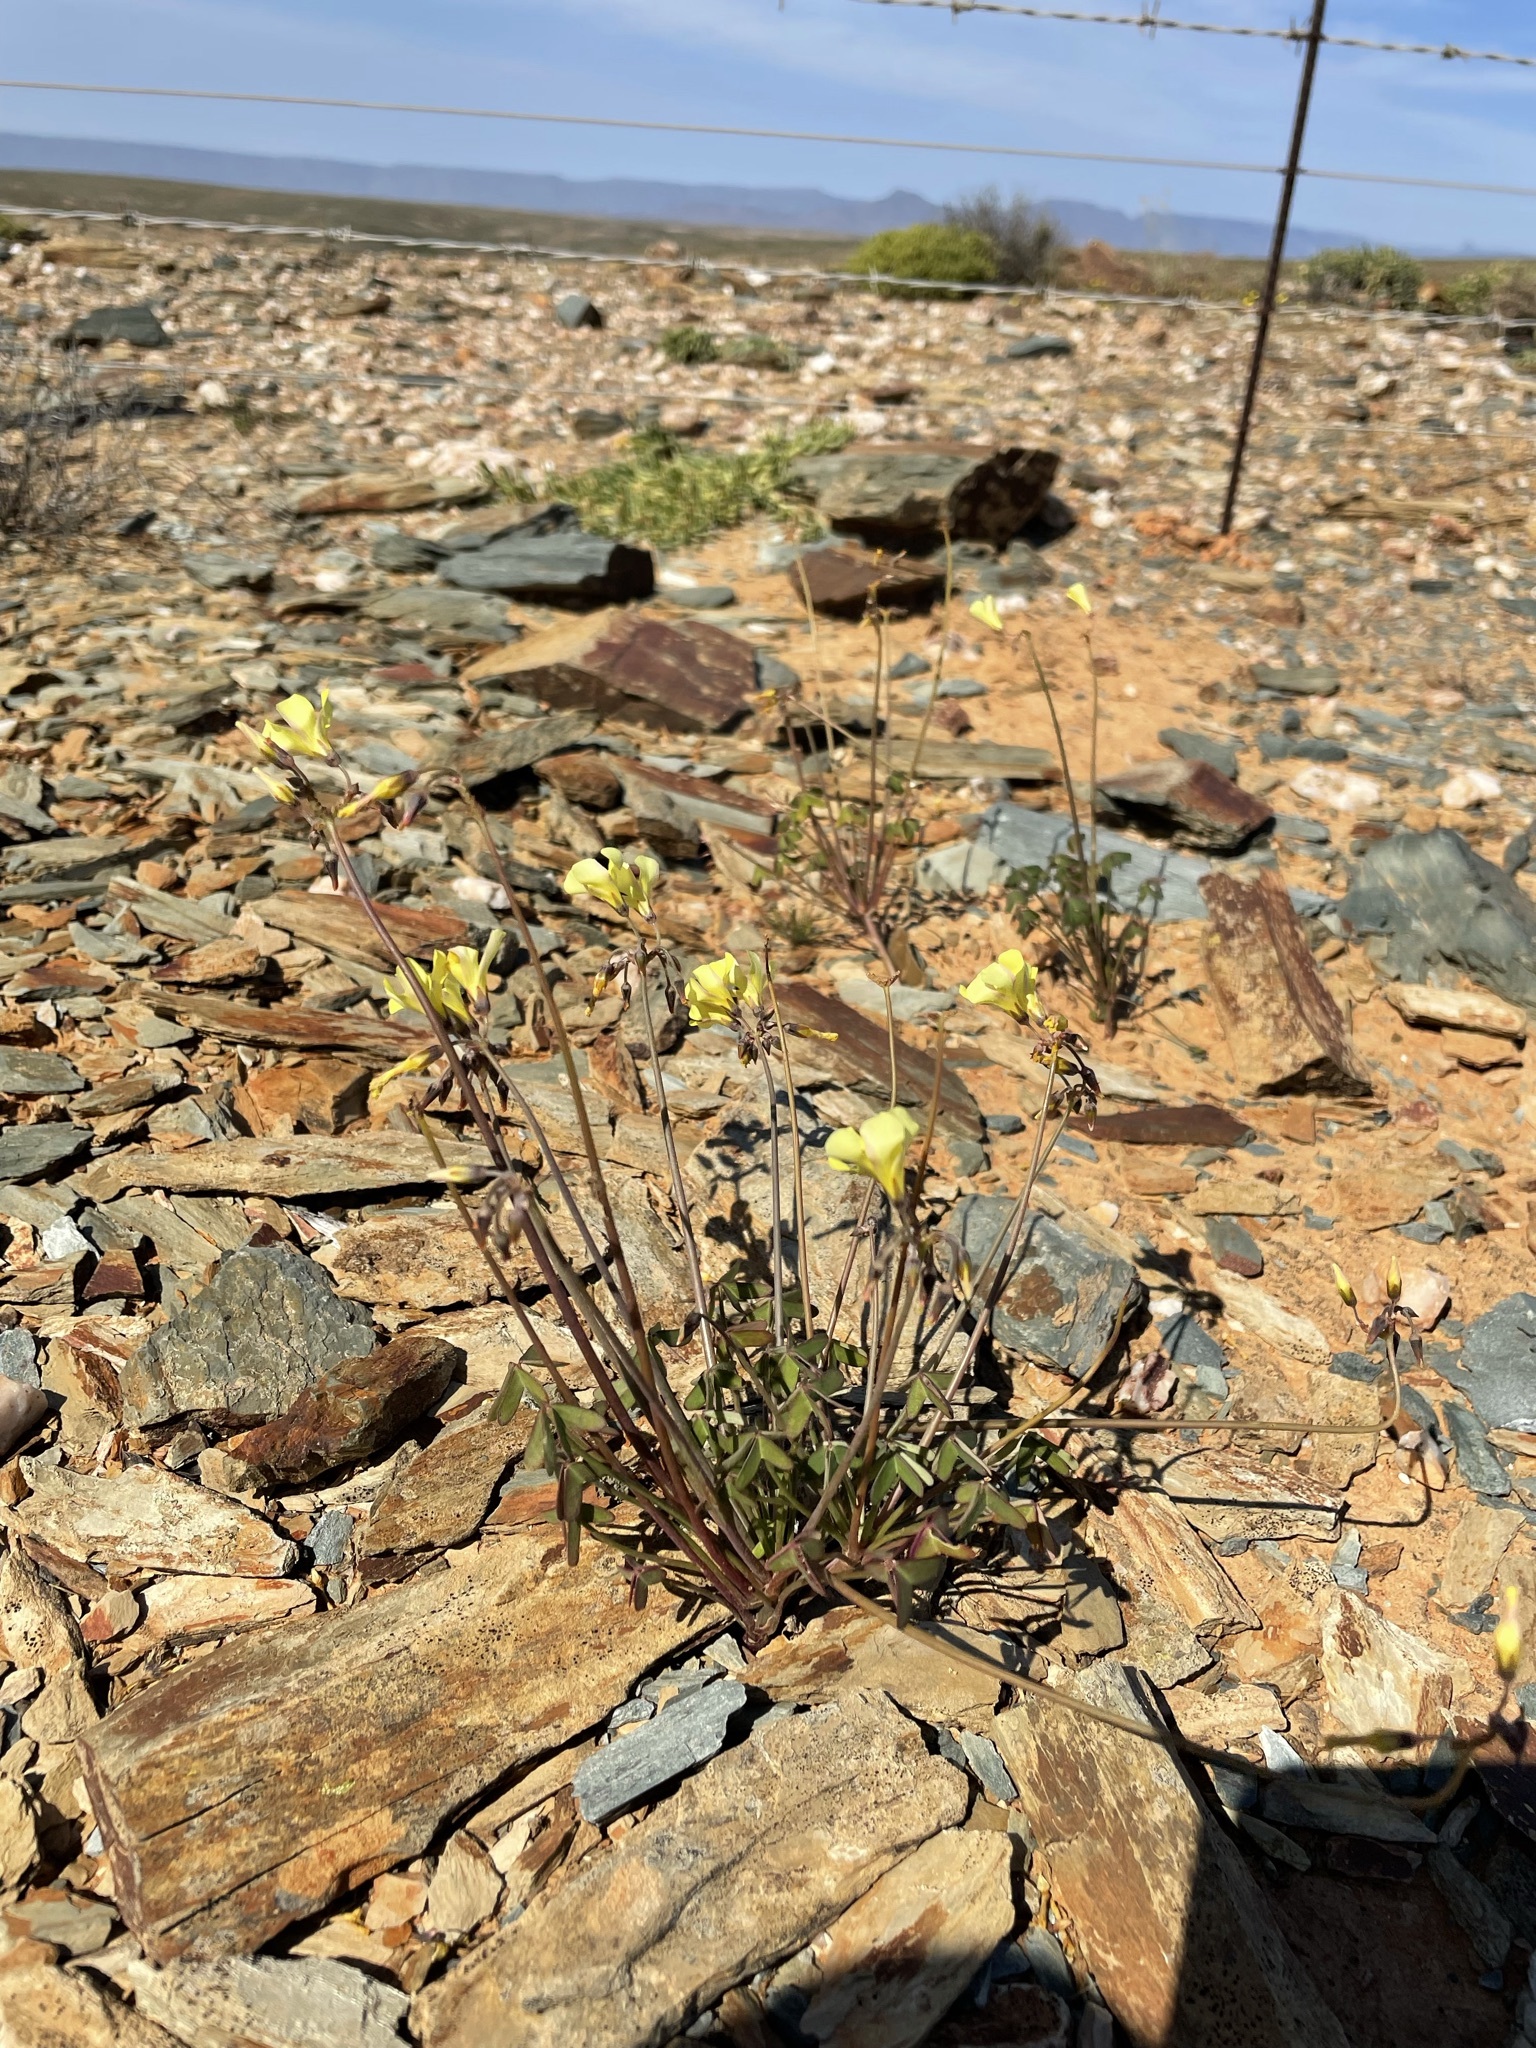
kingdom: Plantae
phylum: Tracheophyta
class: Magnoliopsida
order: Oxalidales
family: Oxalidaceae
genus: Oxalis
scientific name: Oxalis pes-caprae
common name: Bermuda-buttercup
